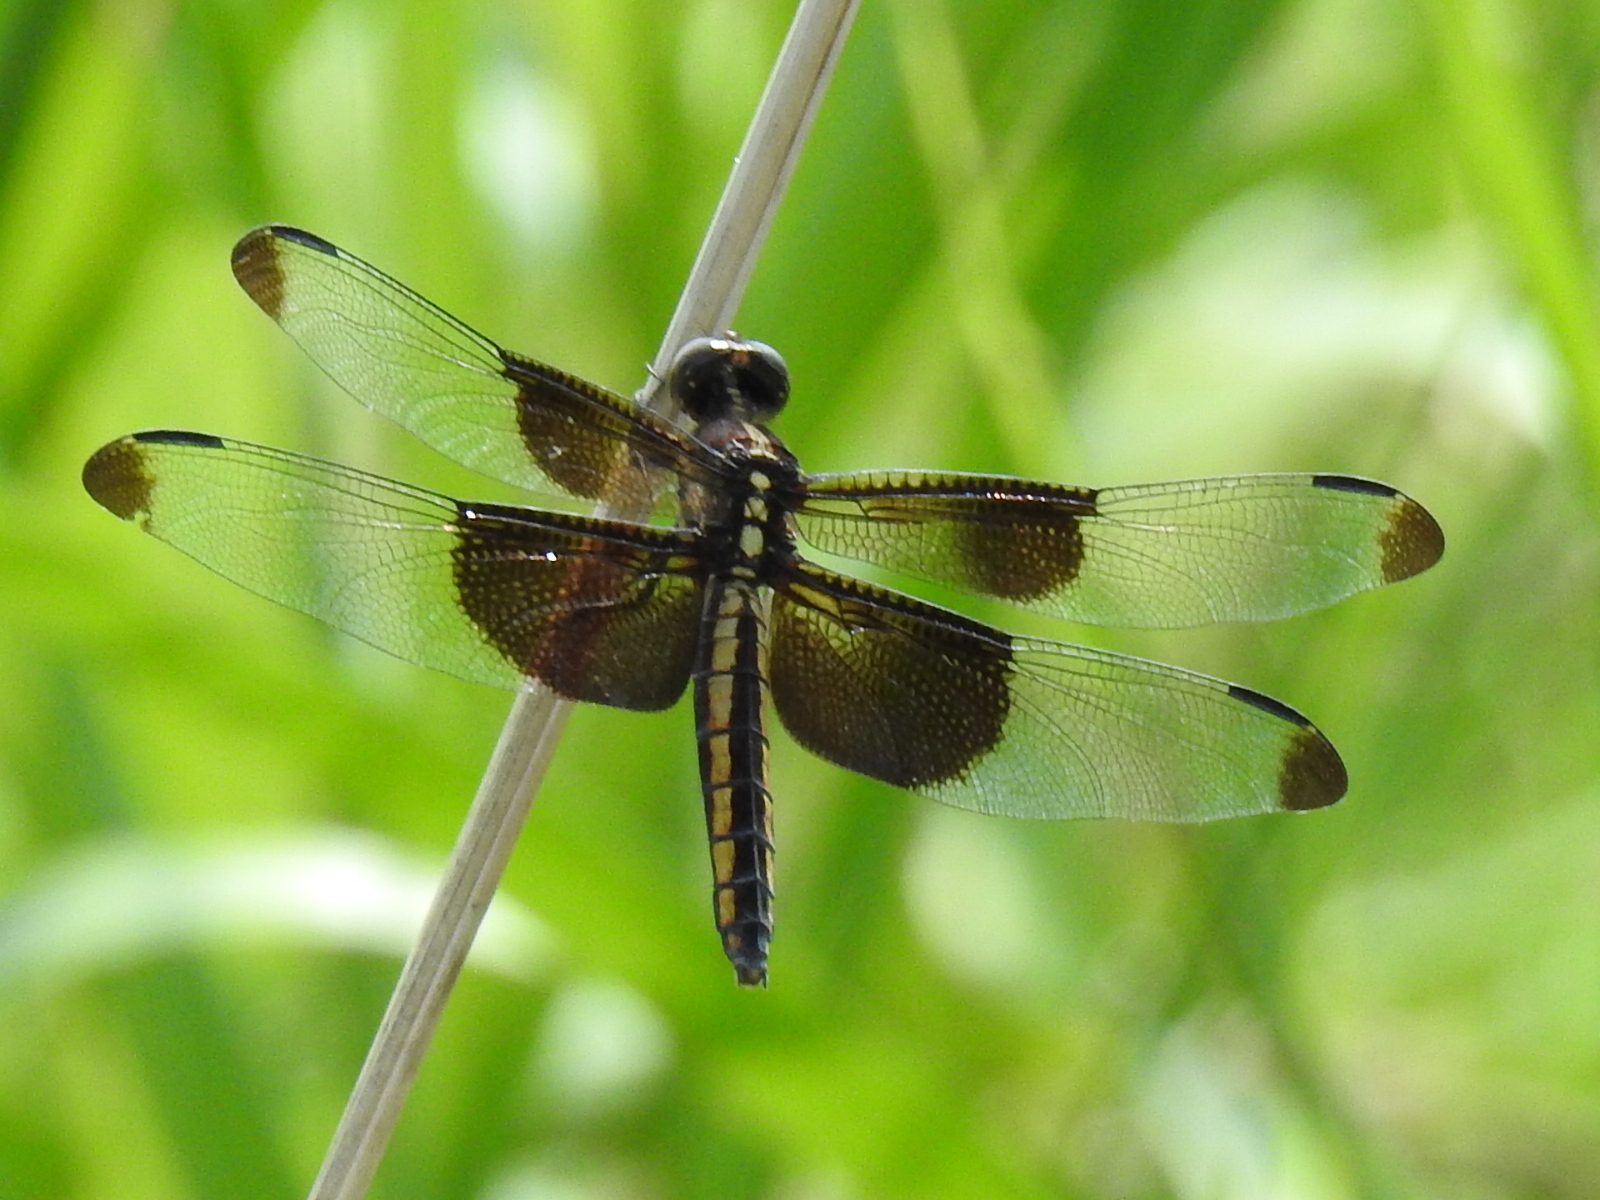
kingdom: Animalia
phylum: Arthropoda
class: Insecta
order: Odonata
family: Libellulidae
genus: Libellula
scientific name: Libellula luctuosa
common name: Widow skimmer
